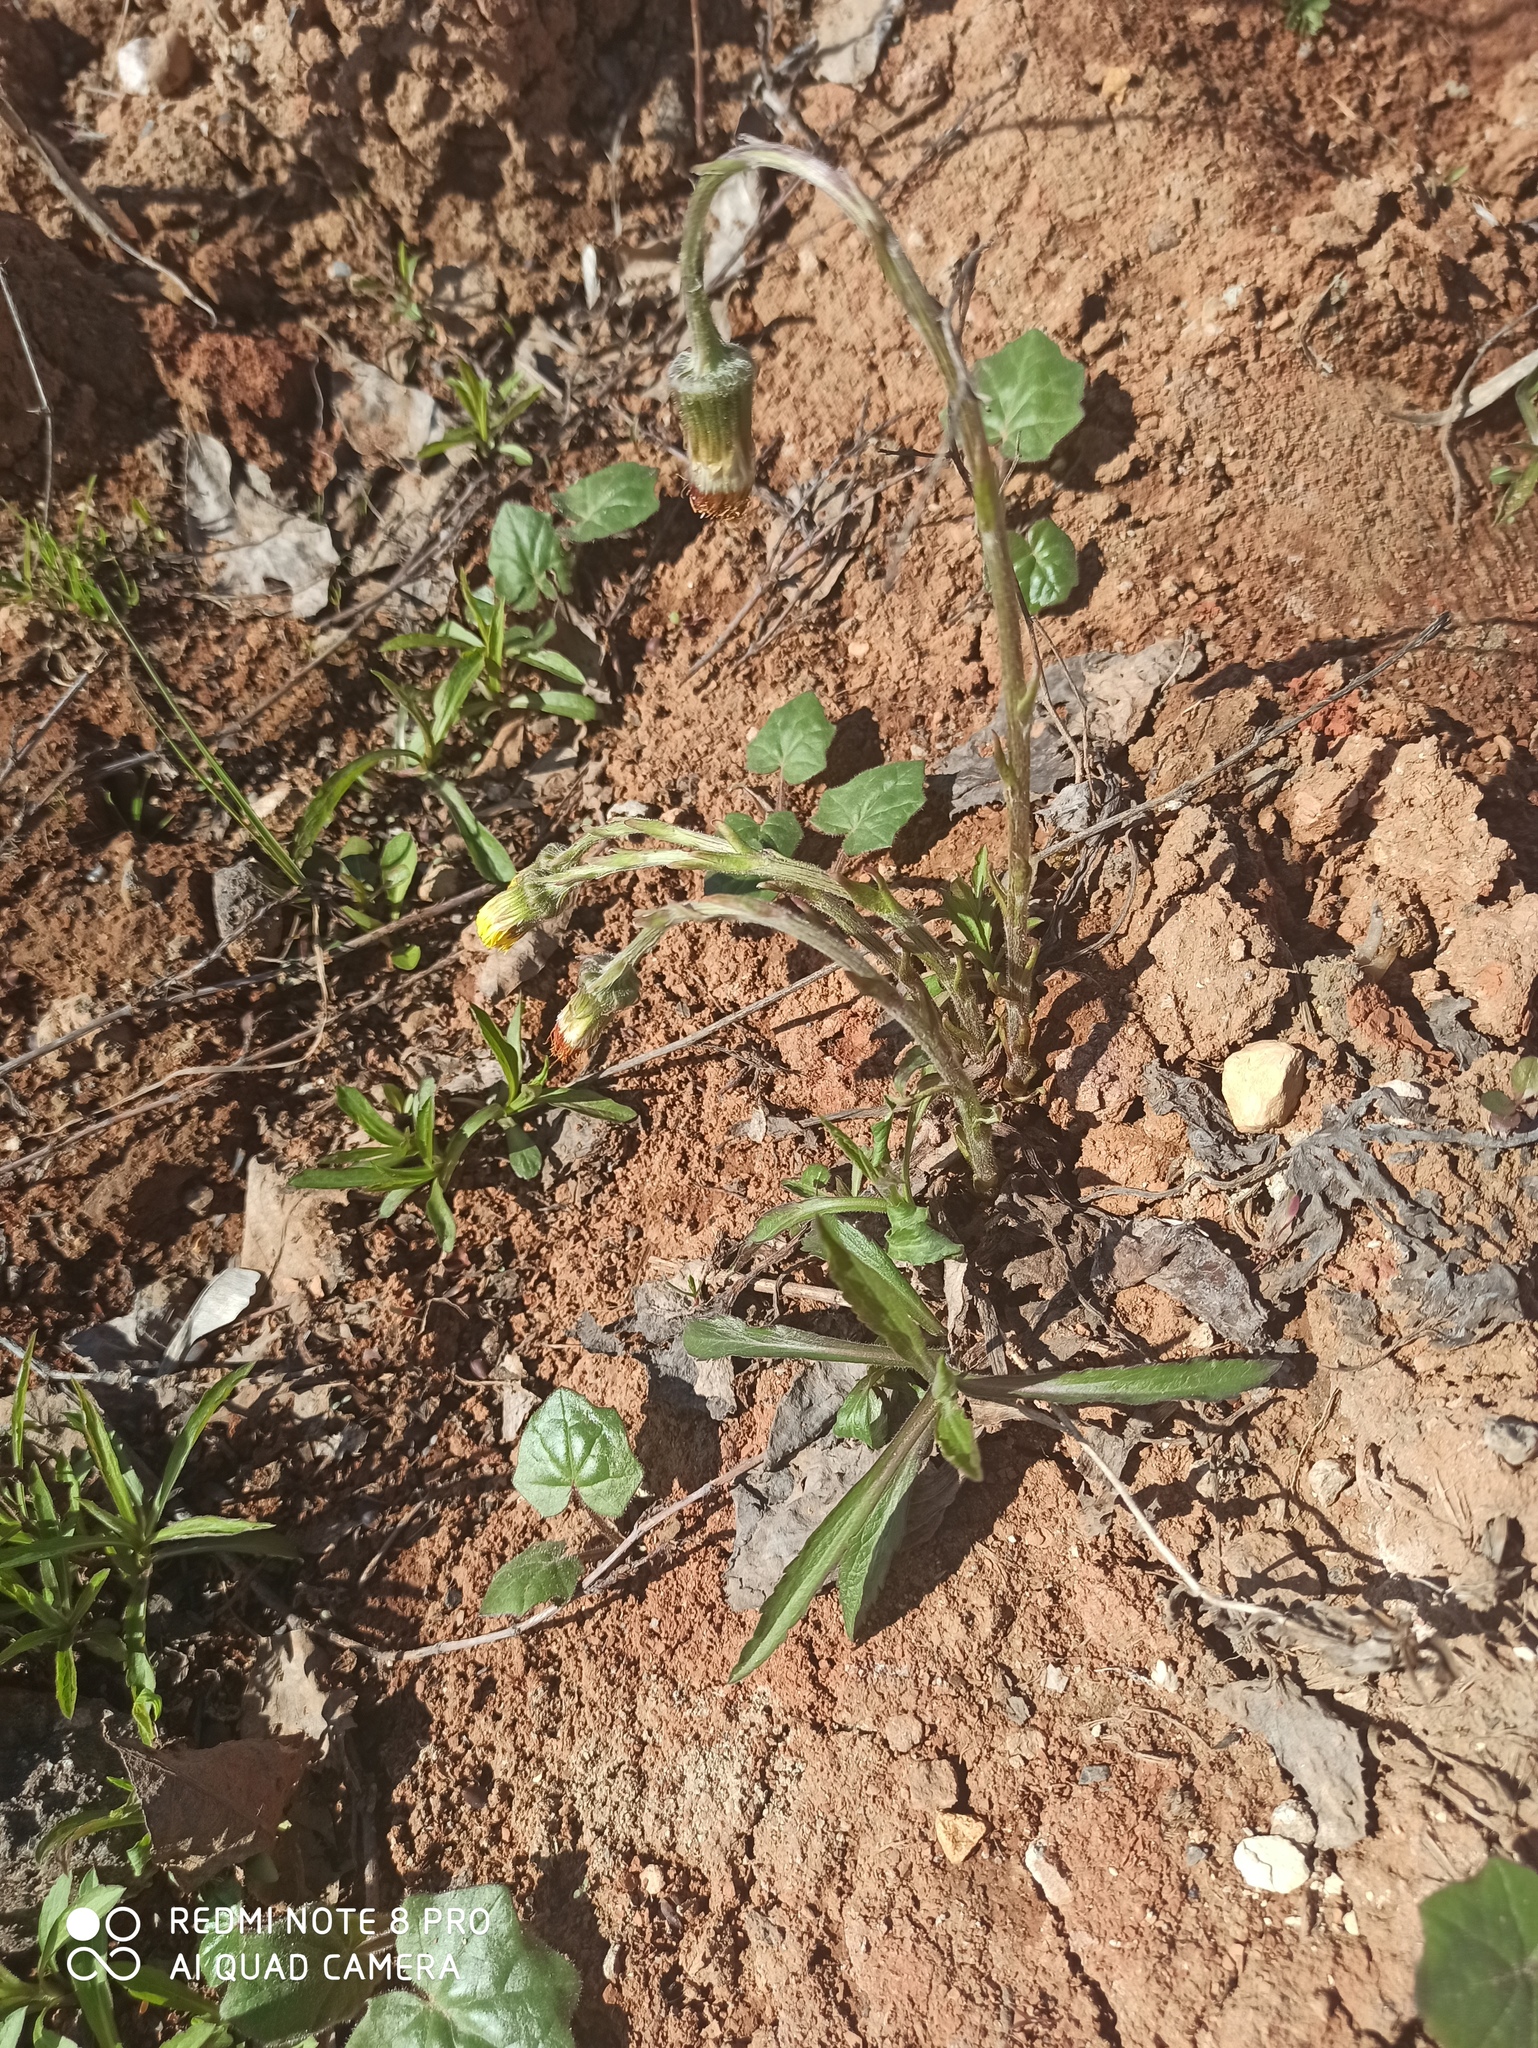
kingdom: Plantae
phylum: Tracheophyta
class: Magnoliopsida
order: Asterales
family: Asteraceae
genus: Tussilago
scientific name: Tussilago farfara
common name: Coltsfoot
